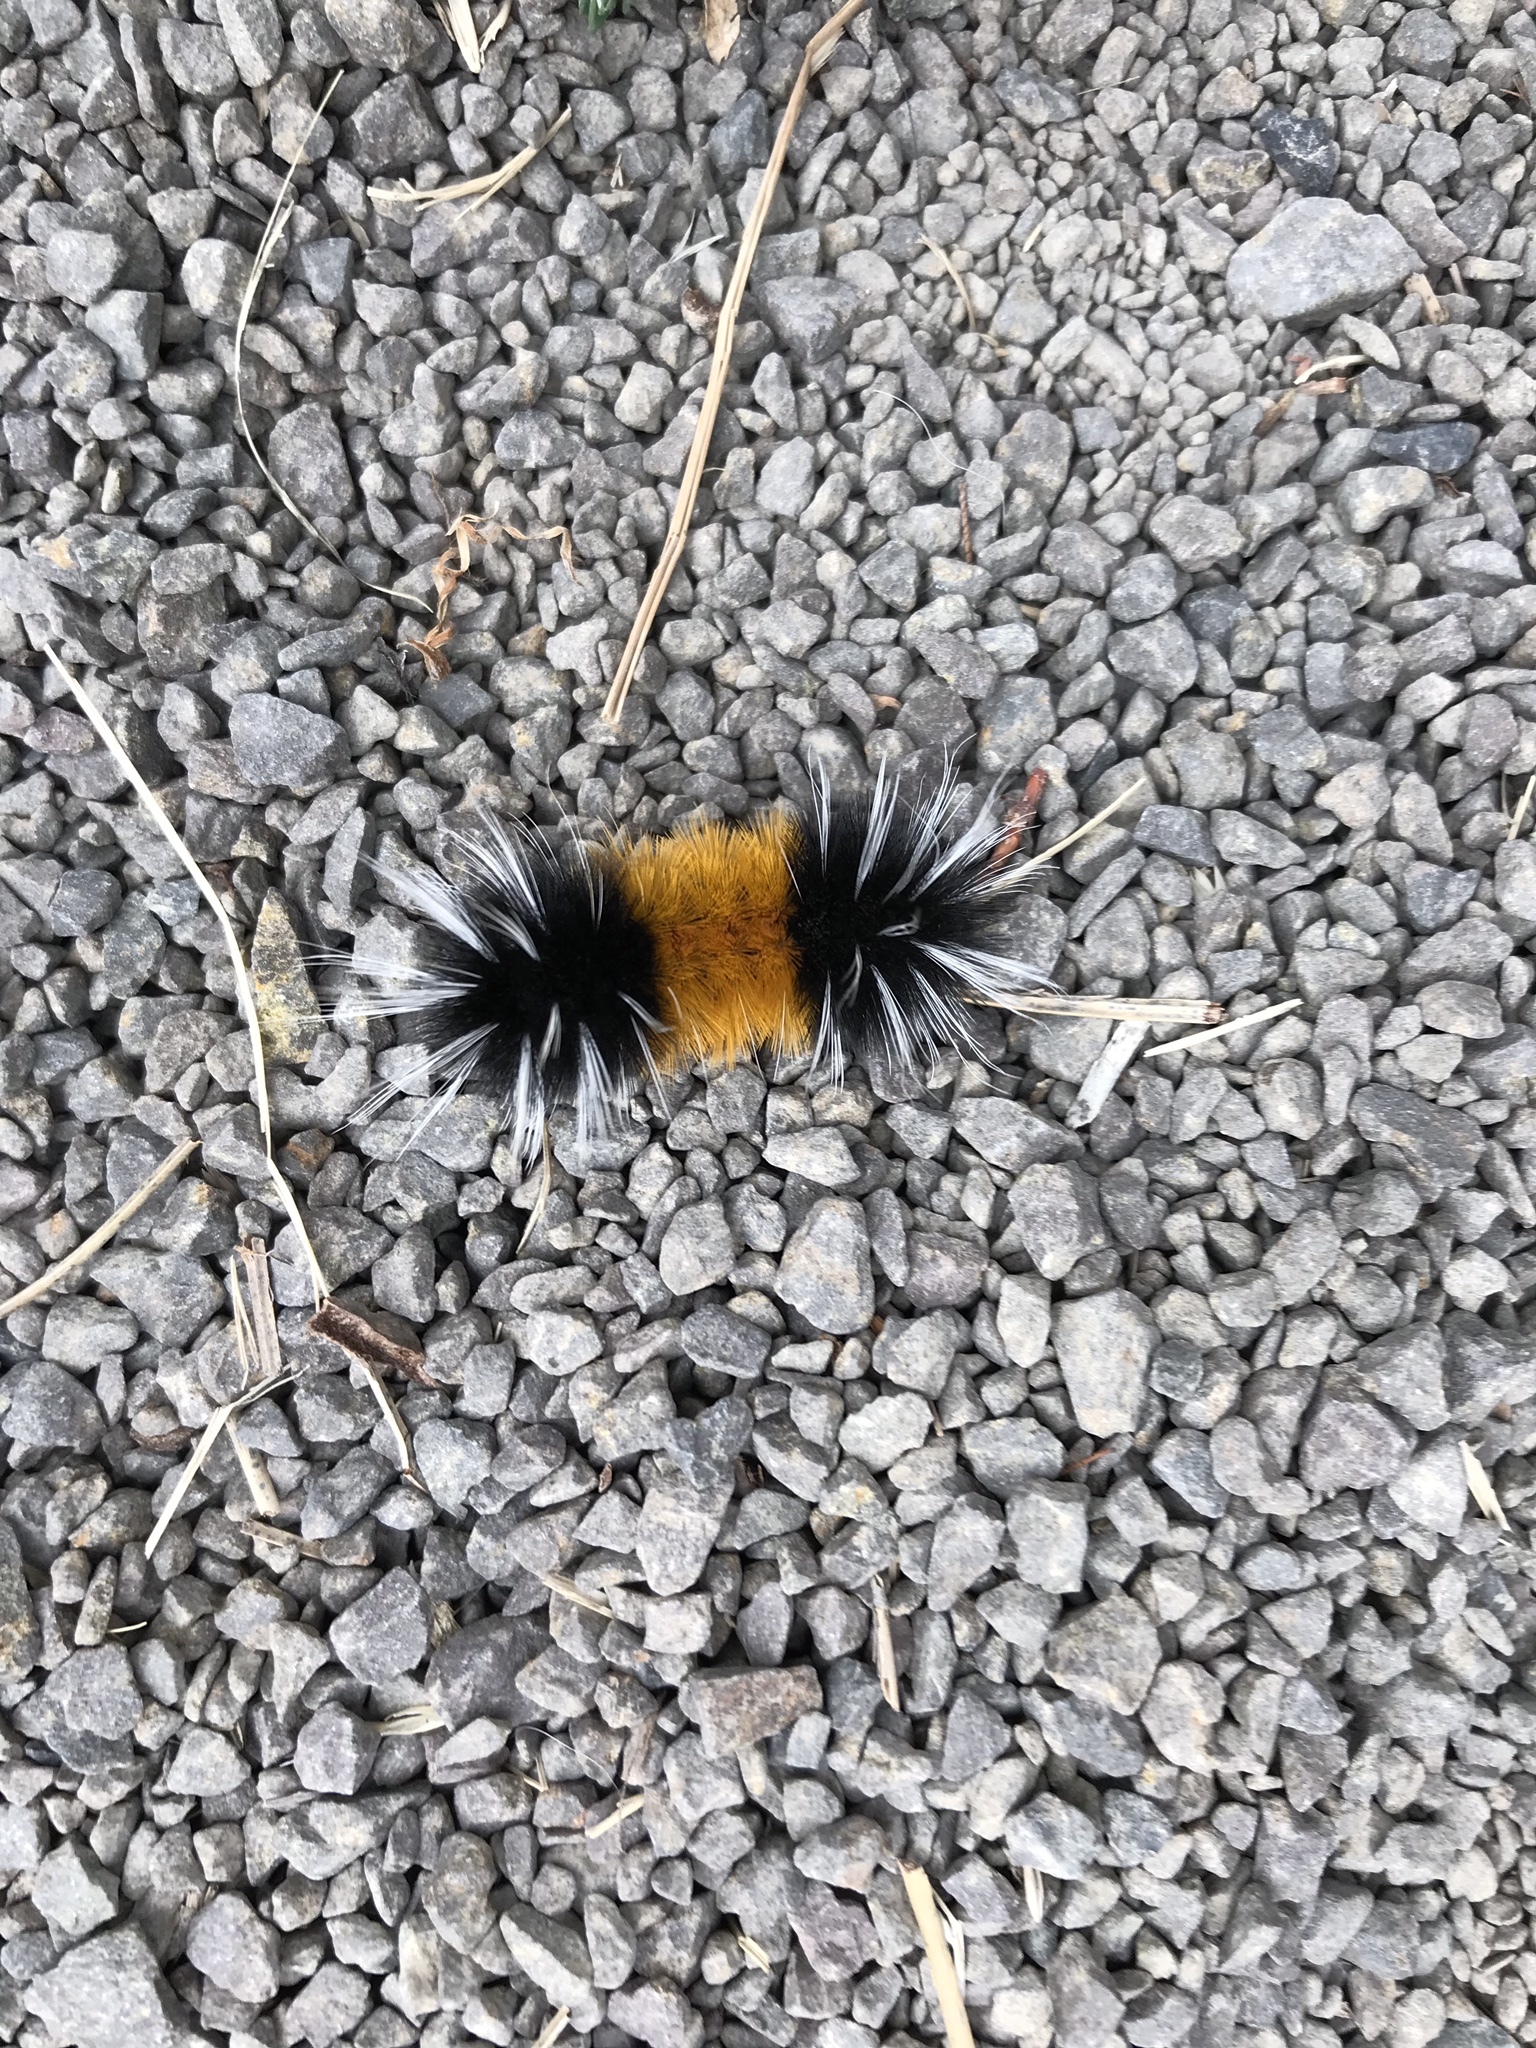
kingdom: Animalia
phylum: Arthropoda
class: Insecta
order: Lepidoptera
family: Erebidae
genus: Lophocampa
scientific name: Lophocampa maculata
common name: Spotted tussock moth
